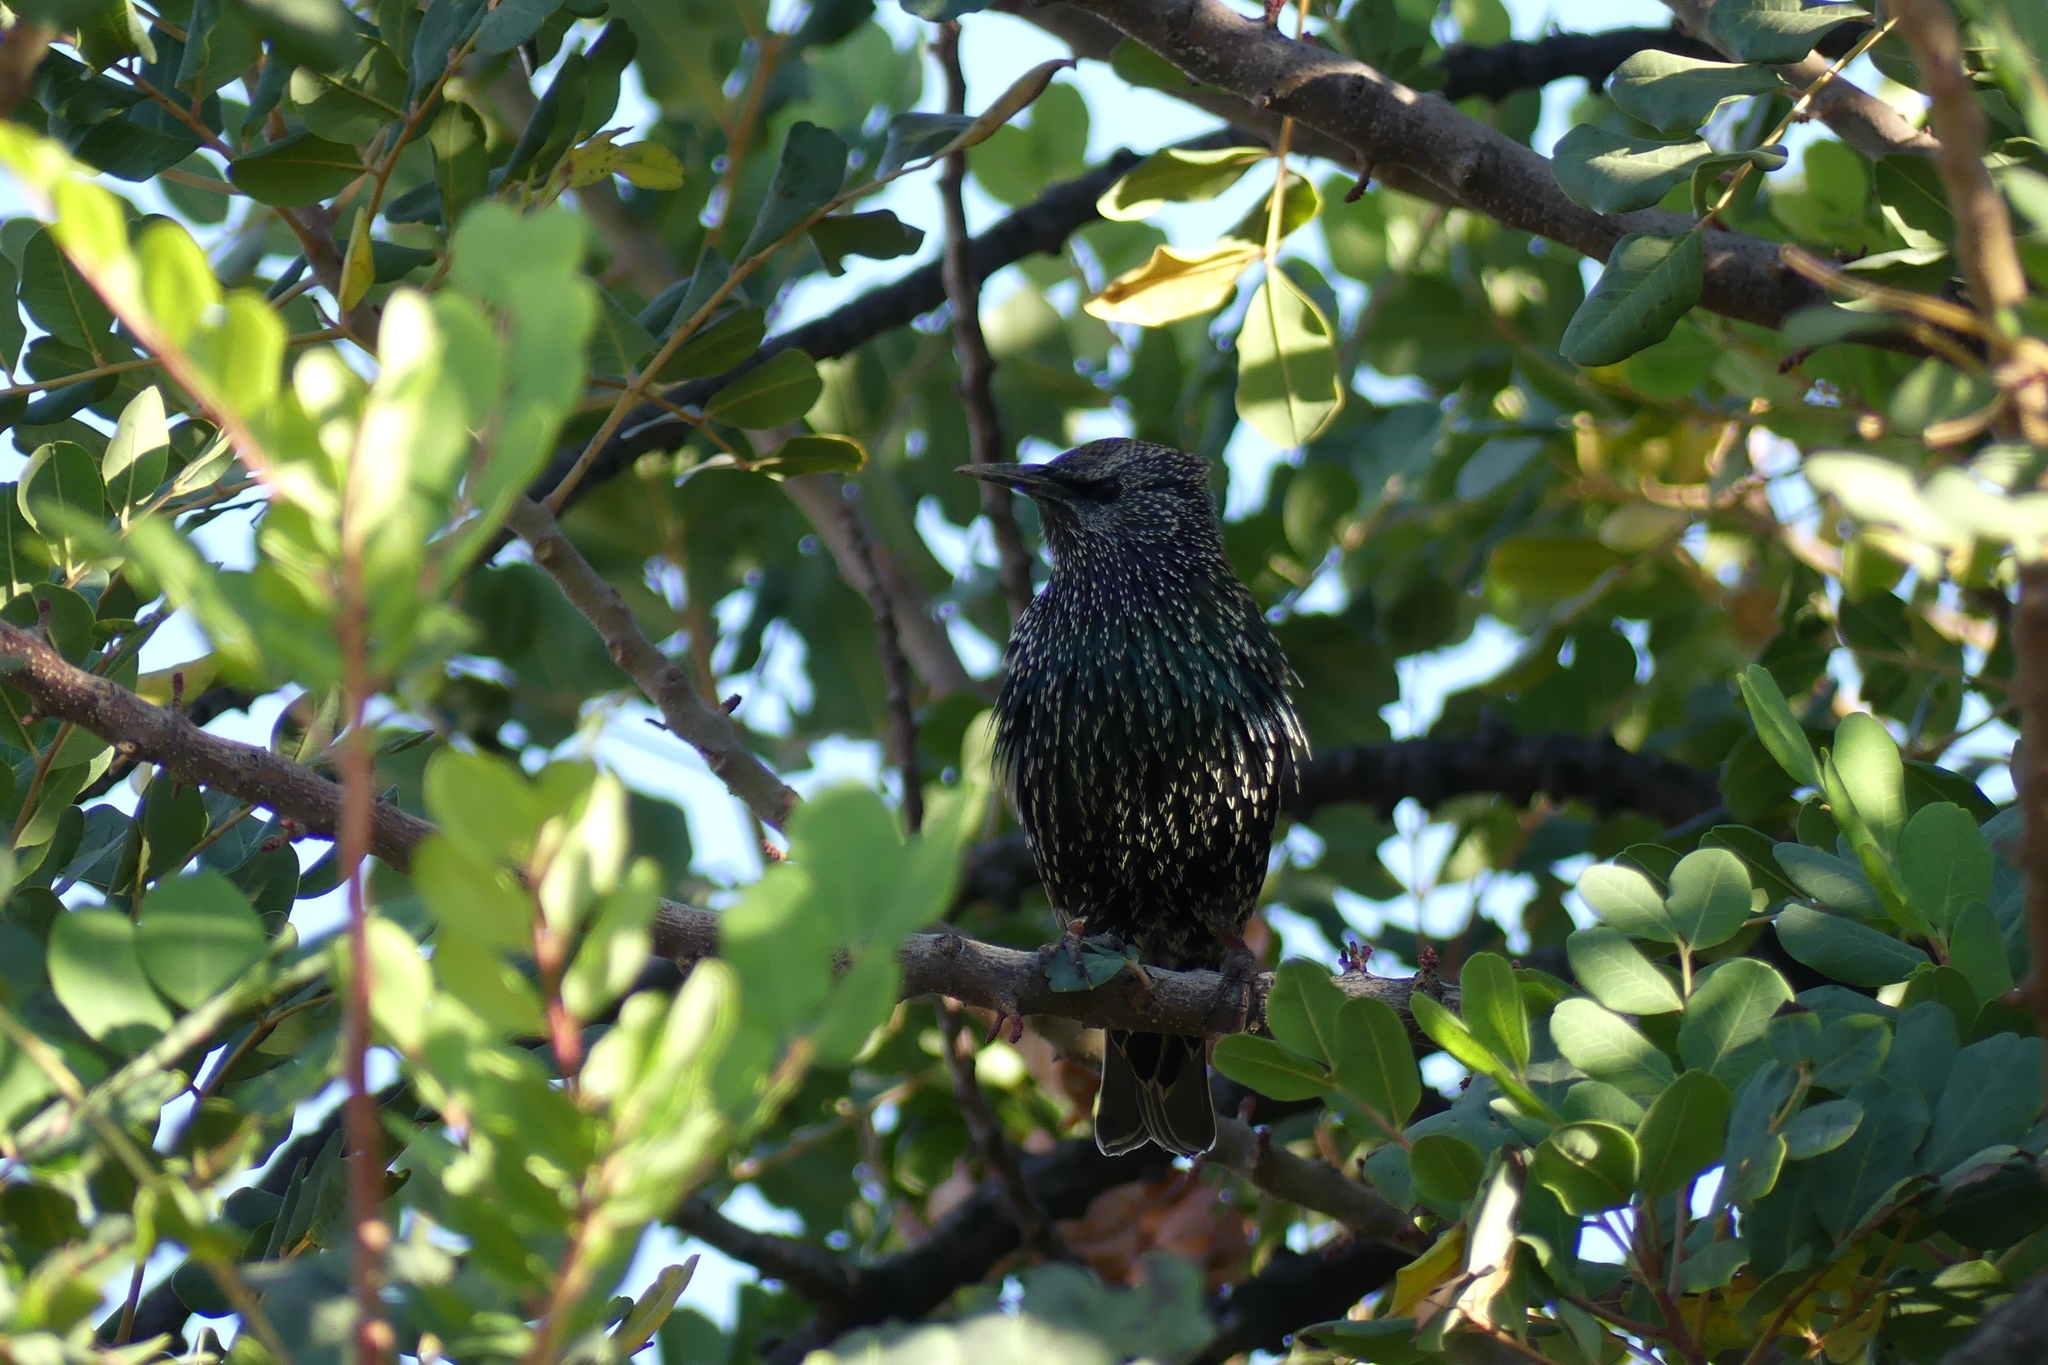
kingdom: Animalia
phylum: Chordata
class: Aves
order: Passeriformes
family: Sturnidae
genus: Sturnus
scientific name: Sturnus vulgaris
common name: Common starling
